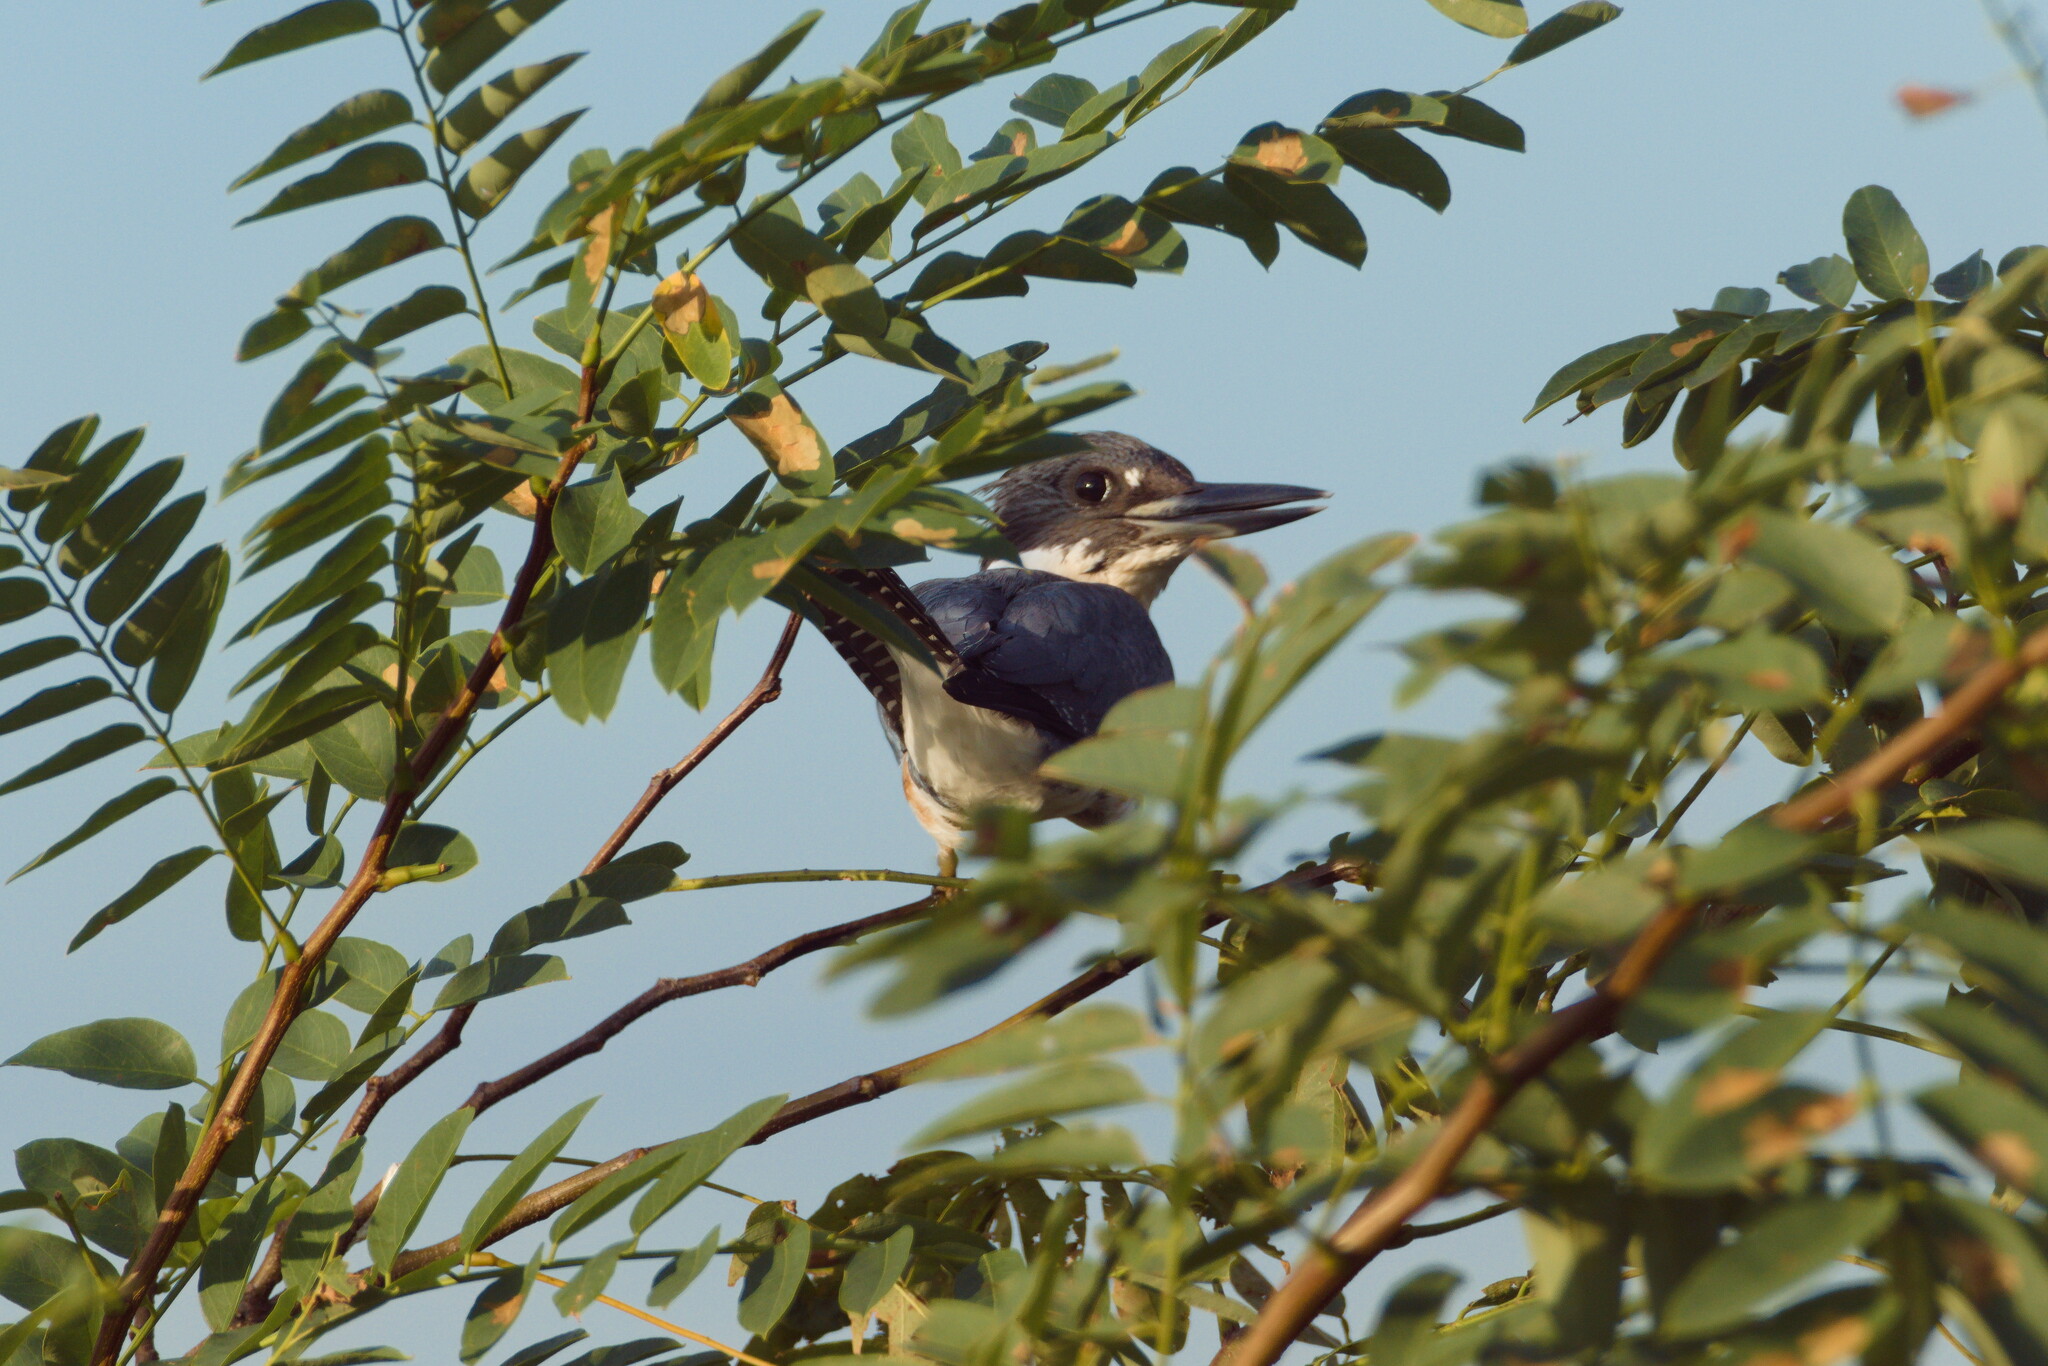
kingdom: Animalia
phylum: Chordata
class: Aves
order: Coraciiformes
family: Alcedinidae
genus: Megaceryle
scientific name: Megaceryle alcyon
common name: Belted kingfisher
